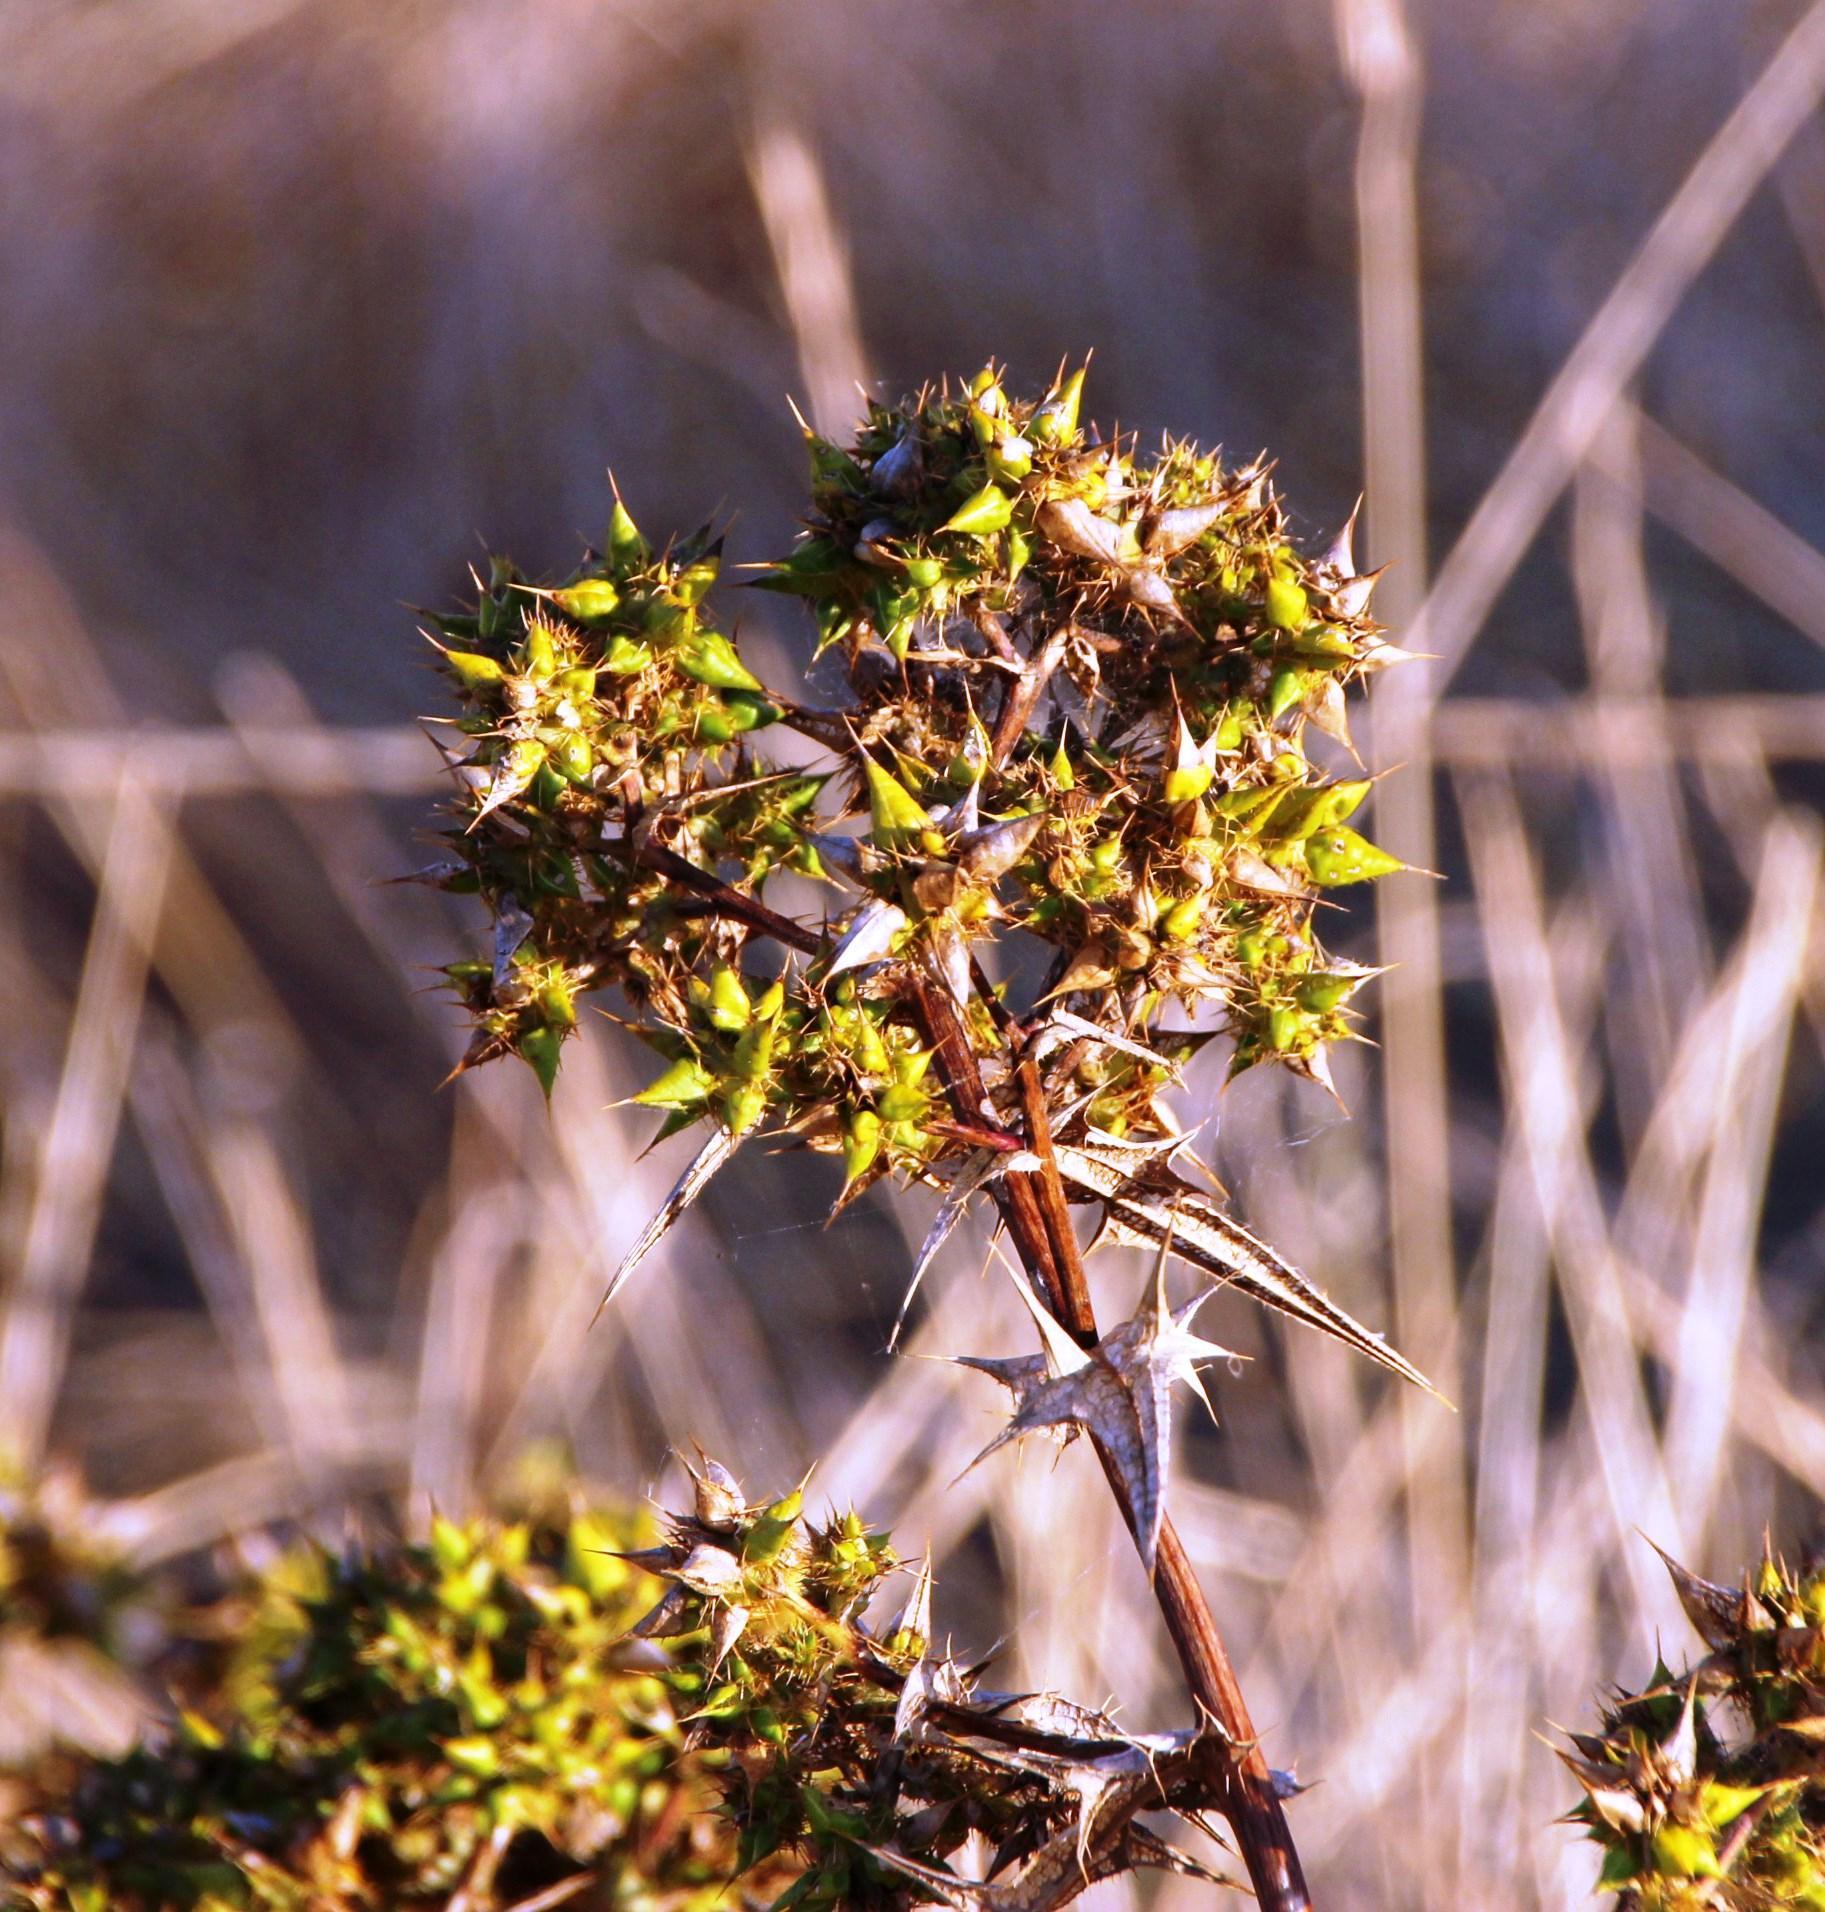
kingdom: Plantae
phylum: Tracheophyta
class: Magnoliopsida
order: Asterales
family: Asteraceae
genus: Berkheya
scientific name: Berkheya rigida
